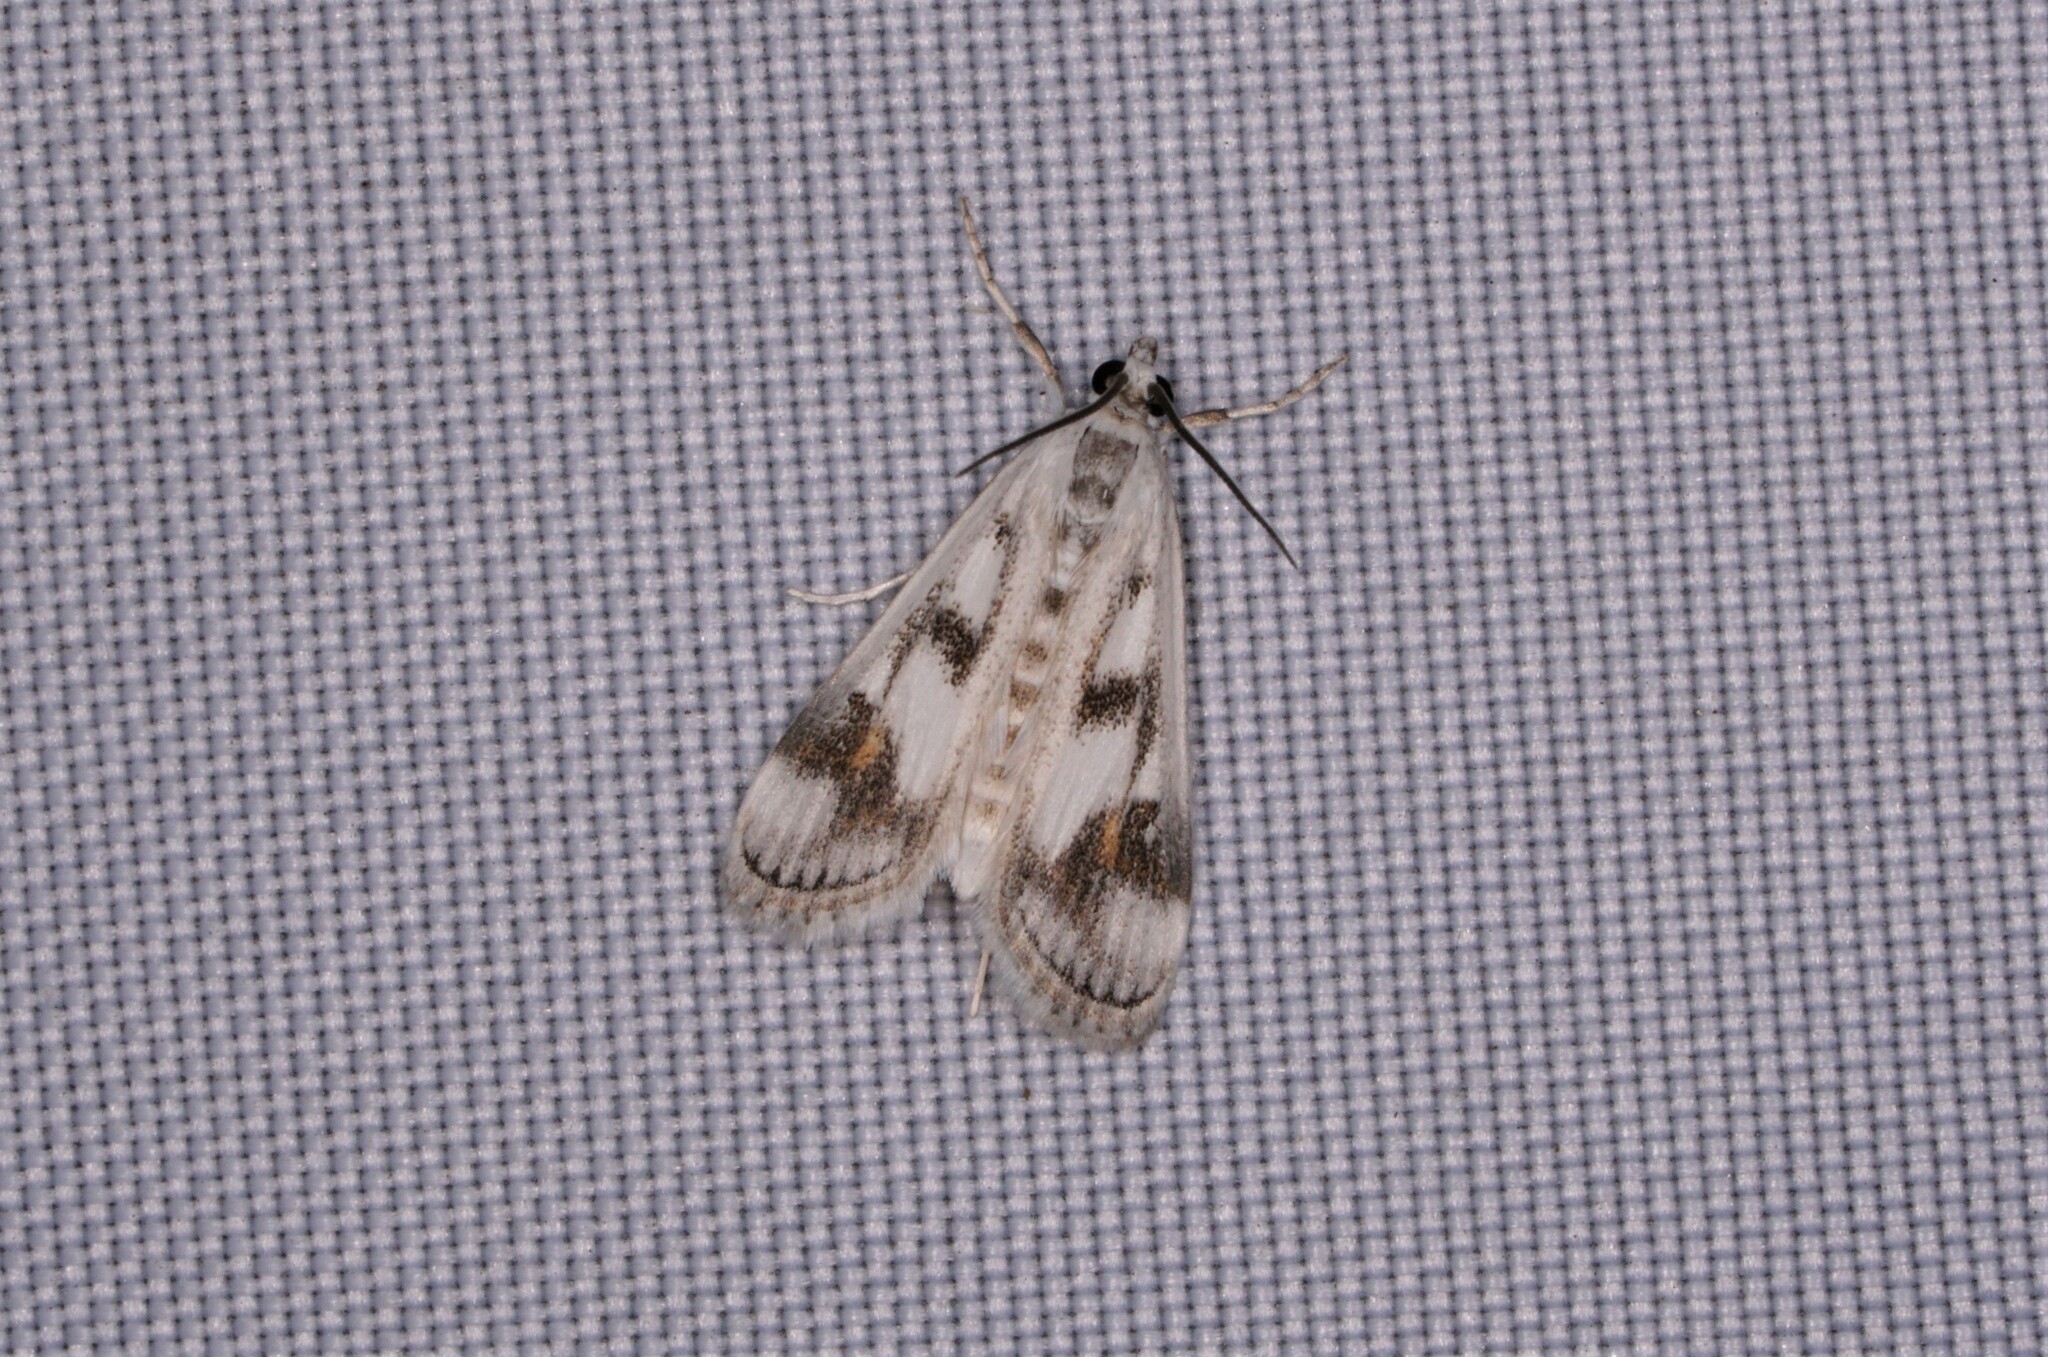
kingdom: Animalia
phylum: Arthropoda
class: Insecta
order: Lepidoptera
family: Crambidae
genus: Parapoynx
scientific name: Parapoynx maculalis
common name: Polymorphic pondweed moth
